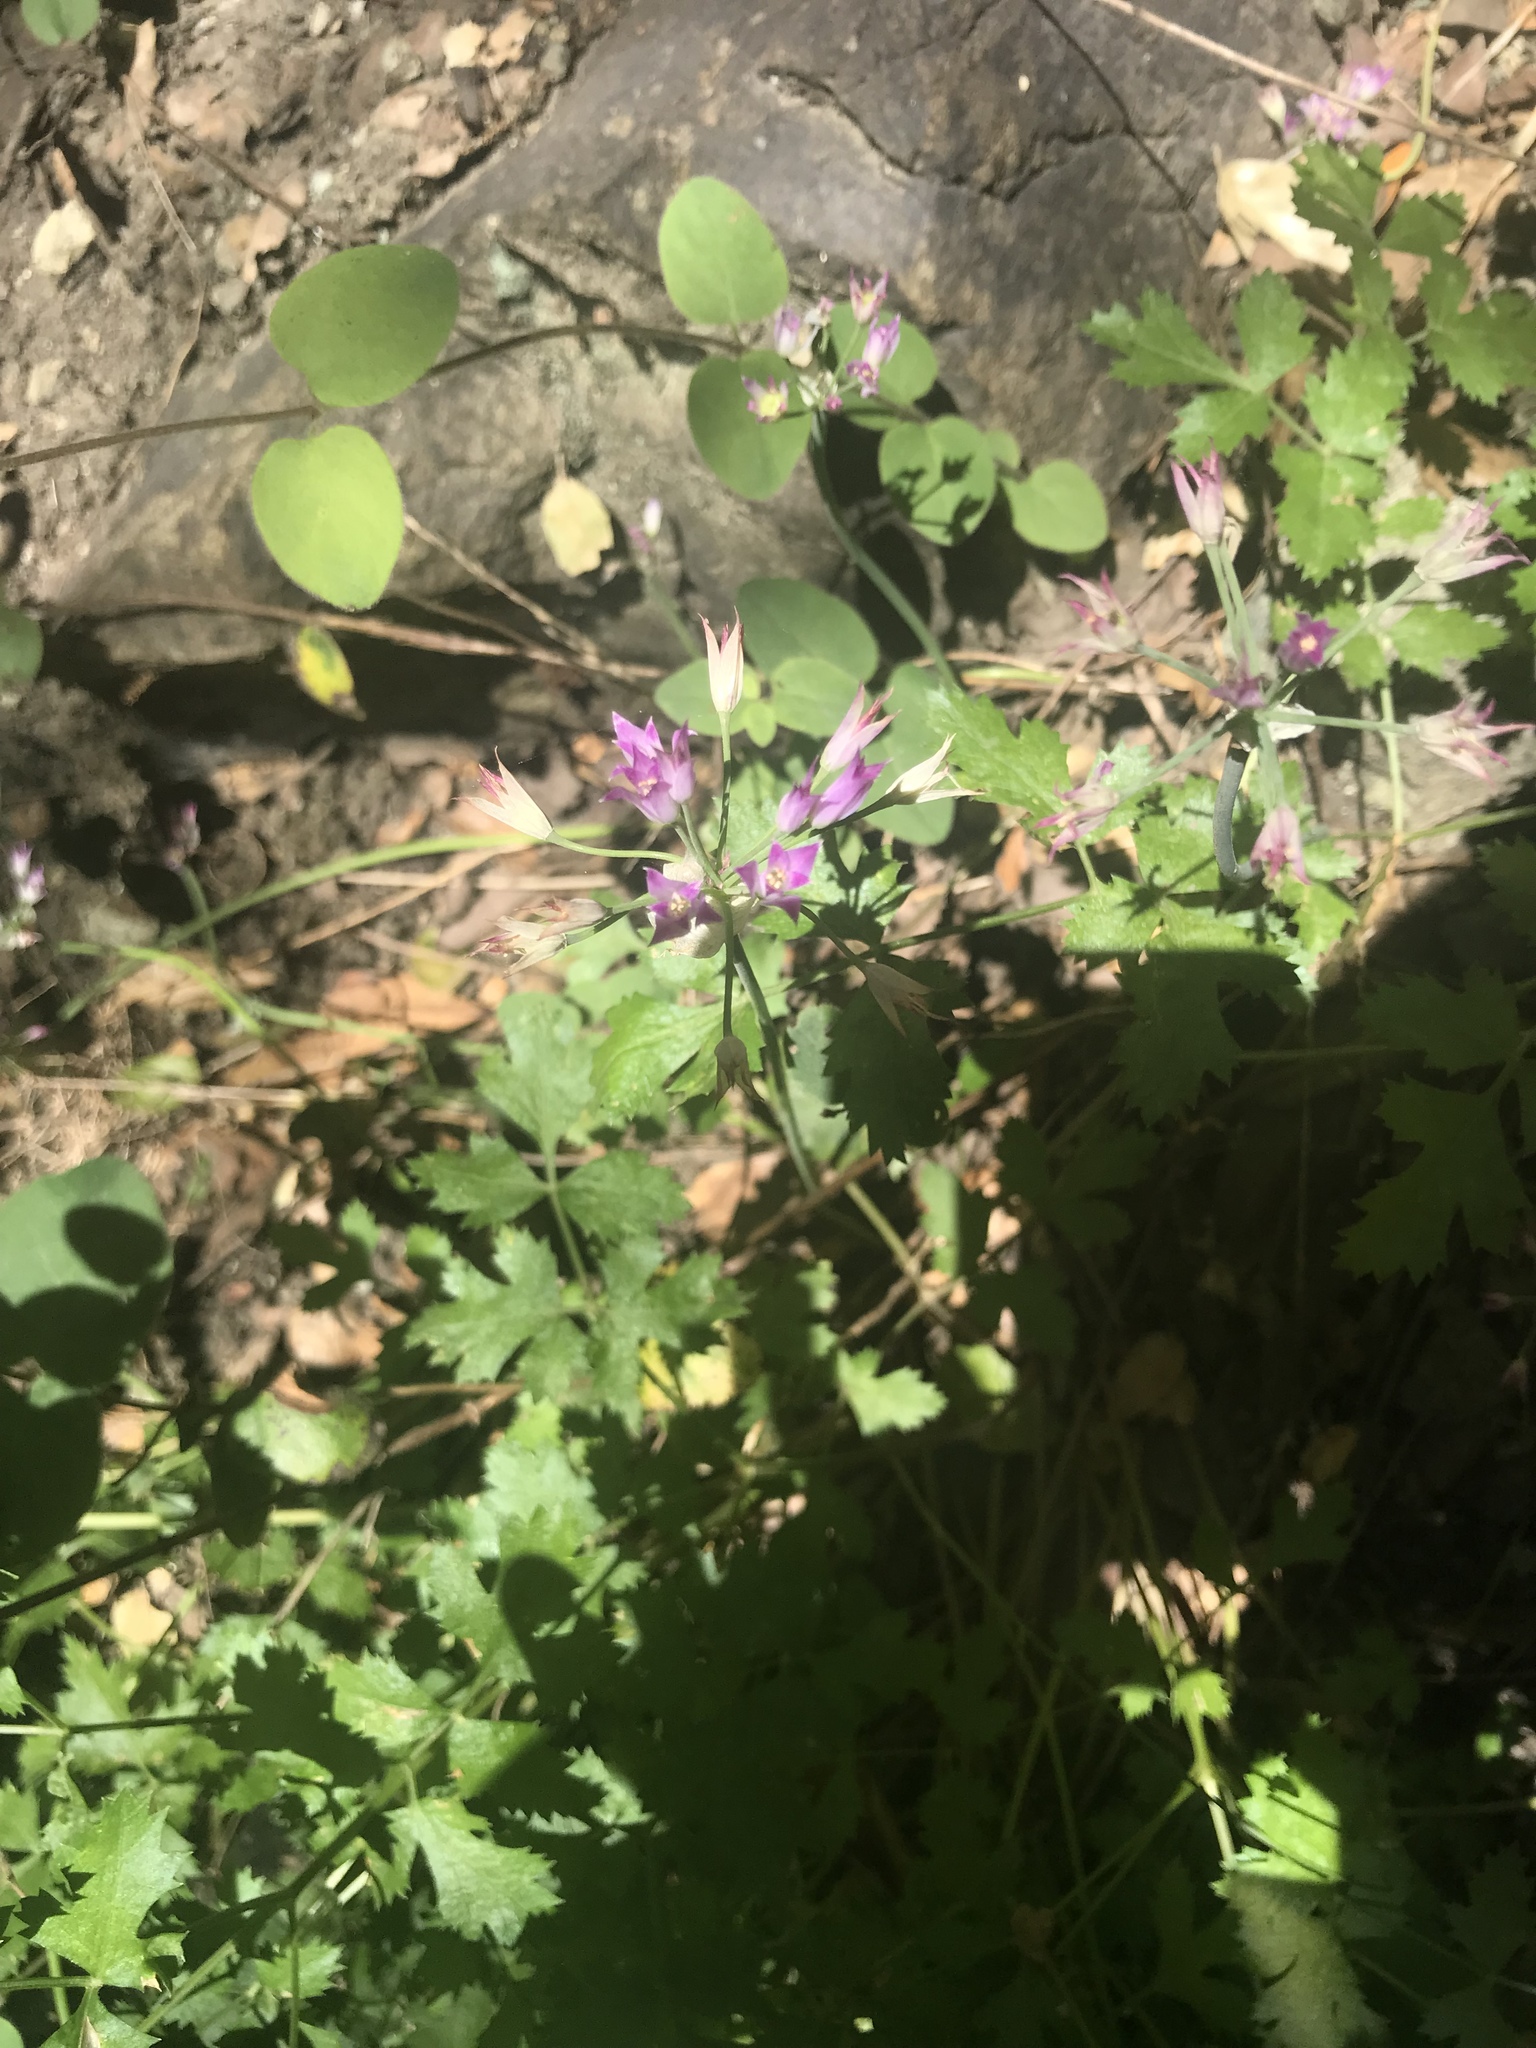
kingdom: Plantae
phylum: Tracheophyta
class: Liliopsida
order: Asparagales
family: Amaryllidaceae
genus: Allium
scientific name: Allium peninsulare
